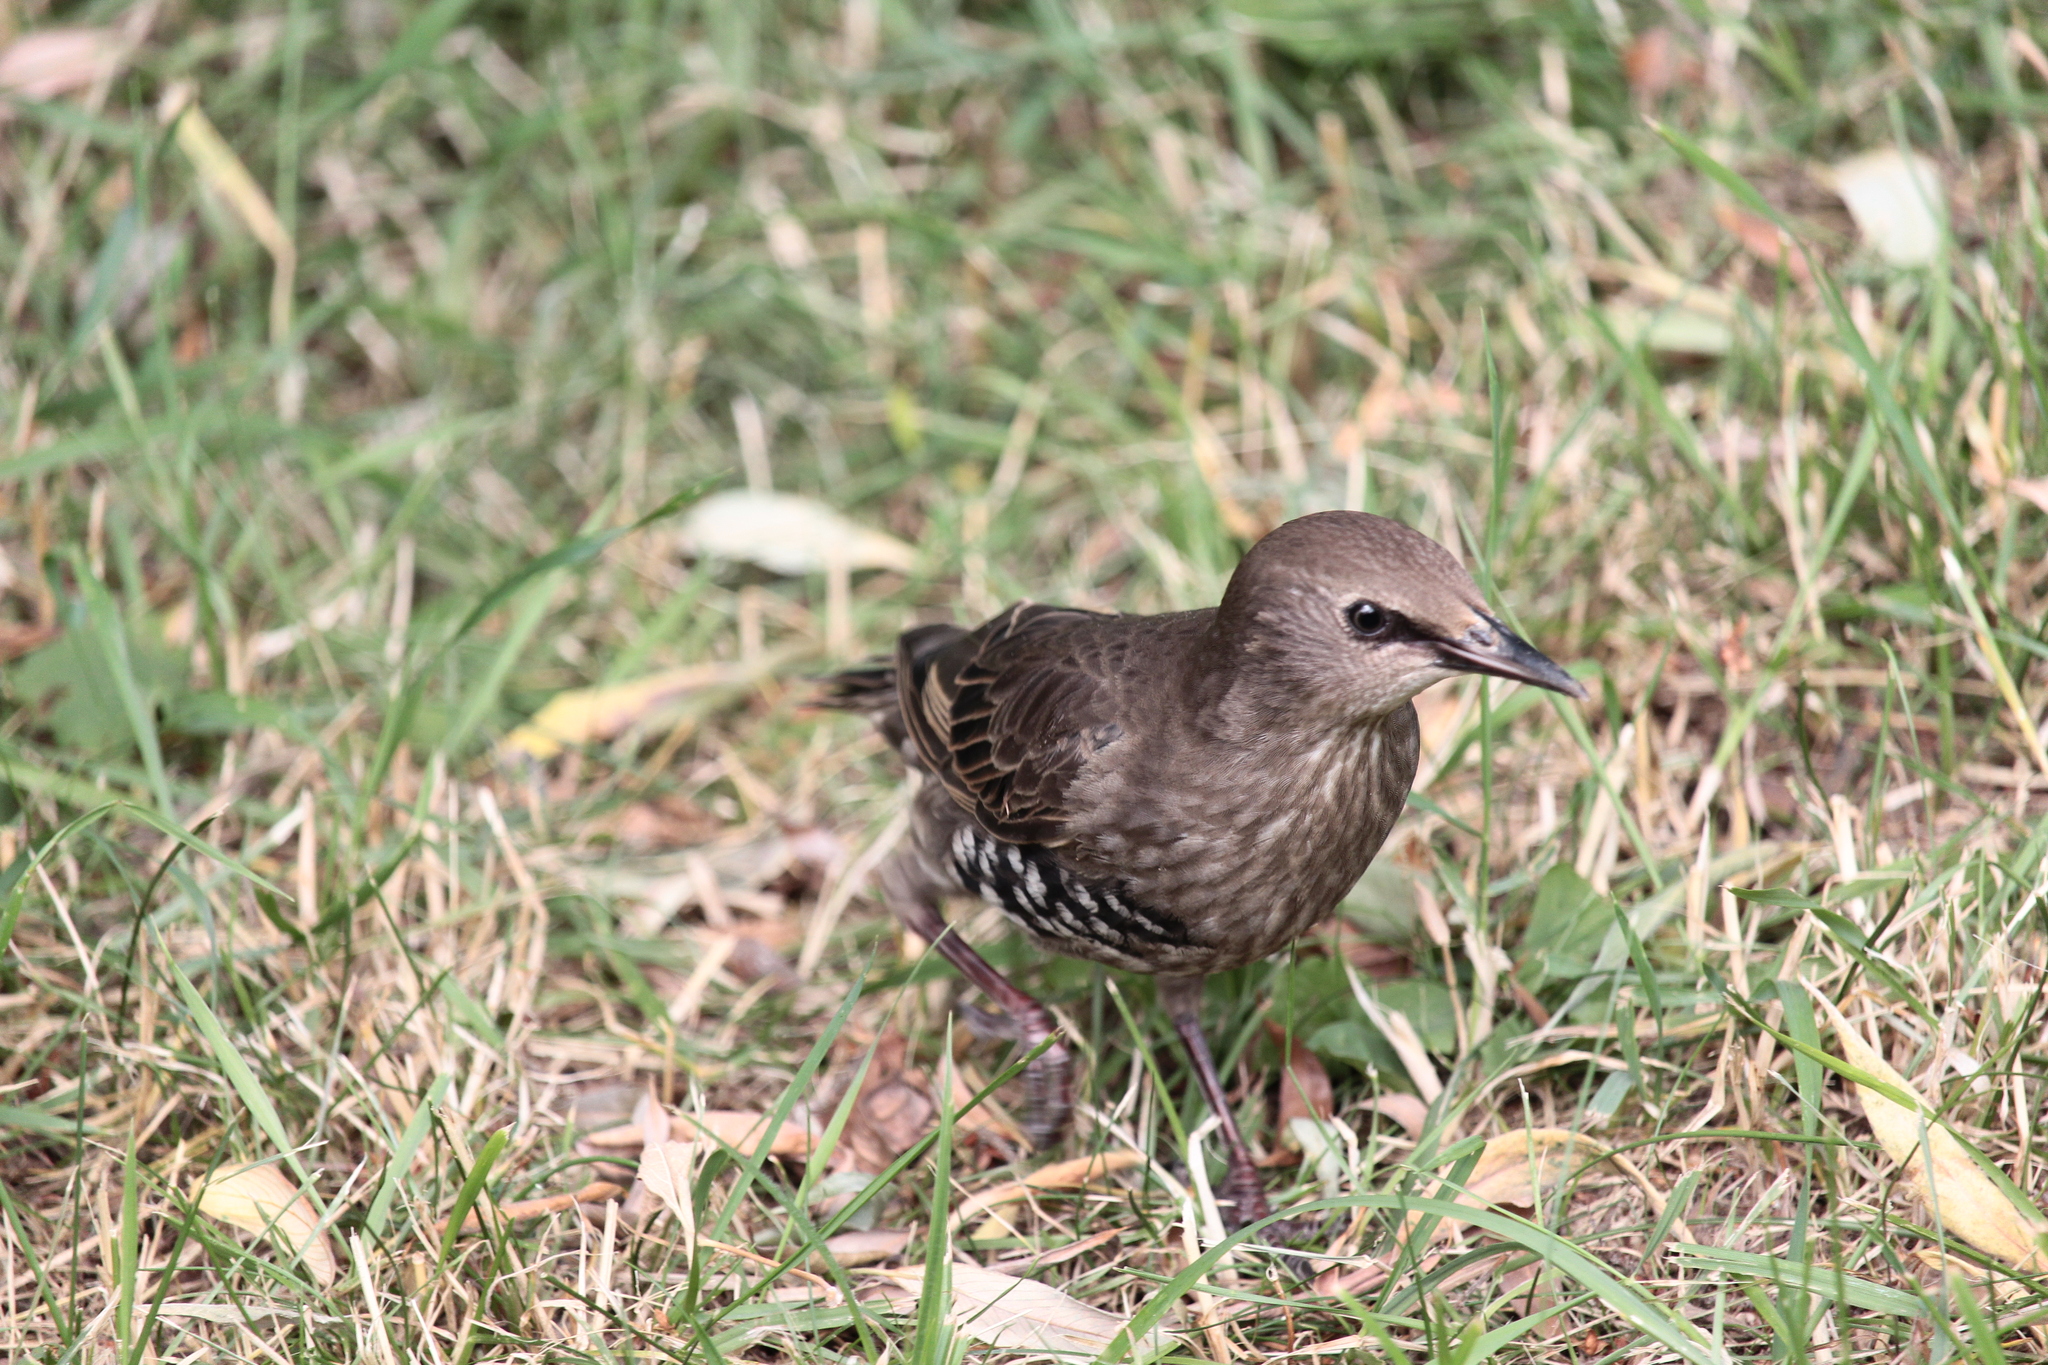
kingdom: Animalia
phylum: Chordata
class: Aves
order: Passeriformes
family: Sturnidae
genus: Sturnus
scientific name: Sturnus vulgaris
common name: Common starling
